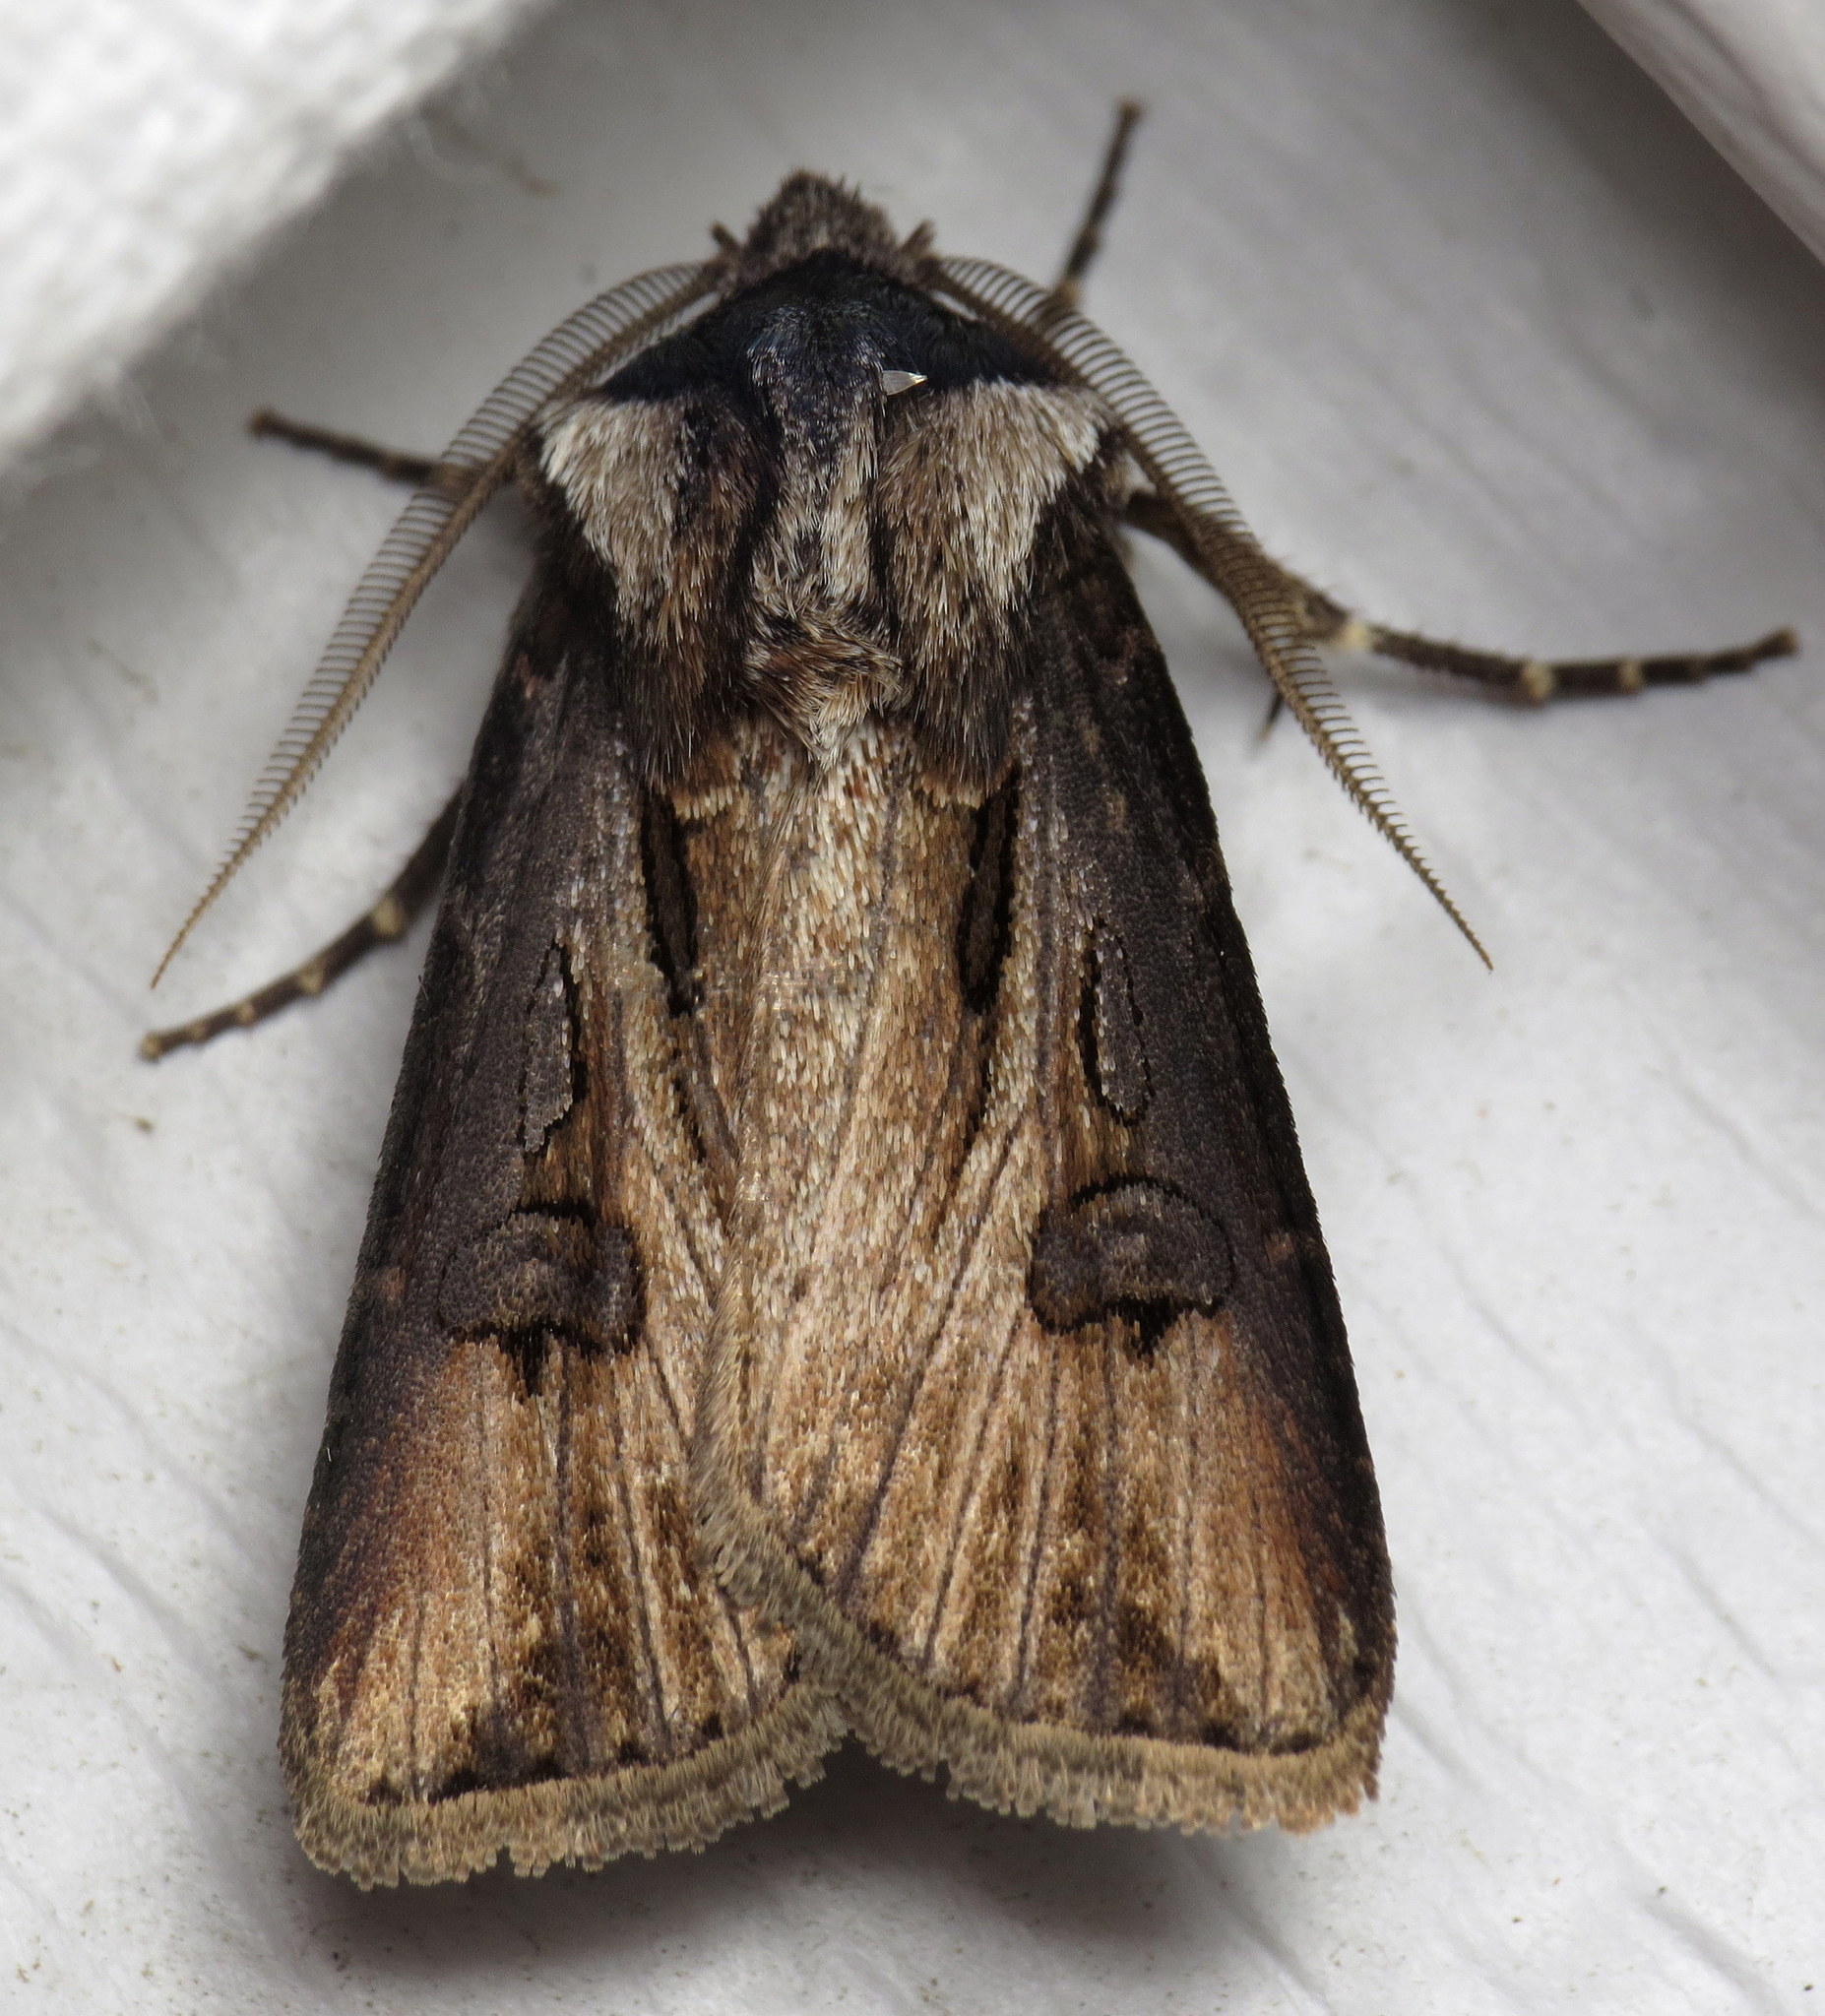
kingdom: Animalia
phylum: Arthropoda
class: Insecta
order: Lepidoptera
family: Noctuidae
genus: Agrotis
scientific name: Agrotis venerabilis
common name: Venerable dart
